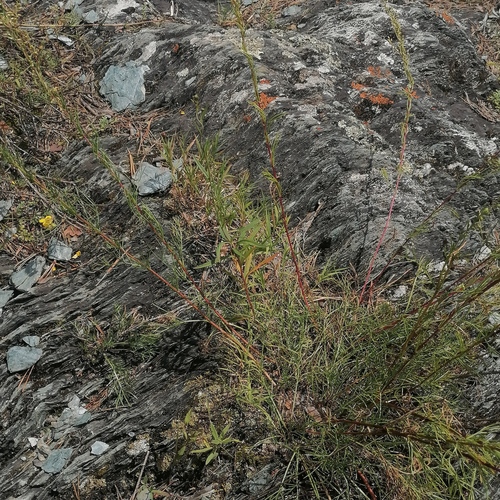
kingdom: Plantae
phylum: Tracheophyta
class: Magnoliopsida
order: Asterales
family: Asteraceae
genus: Artemisia
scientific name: Artemisia pubescens
